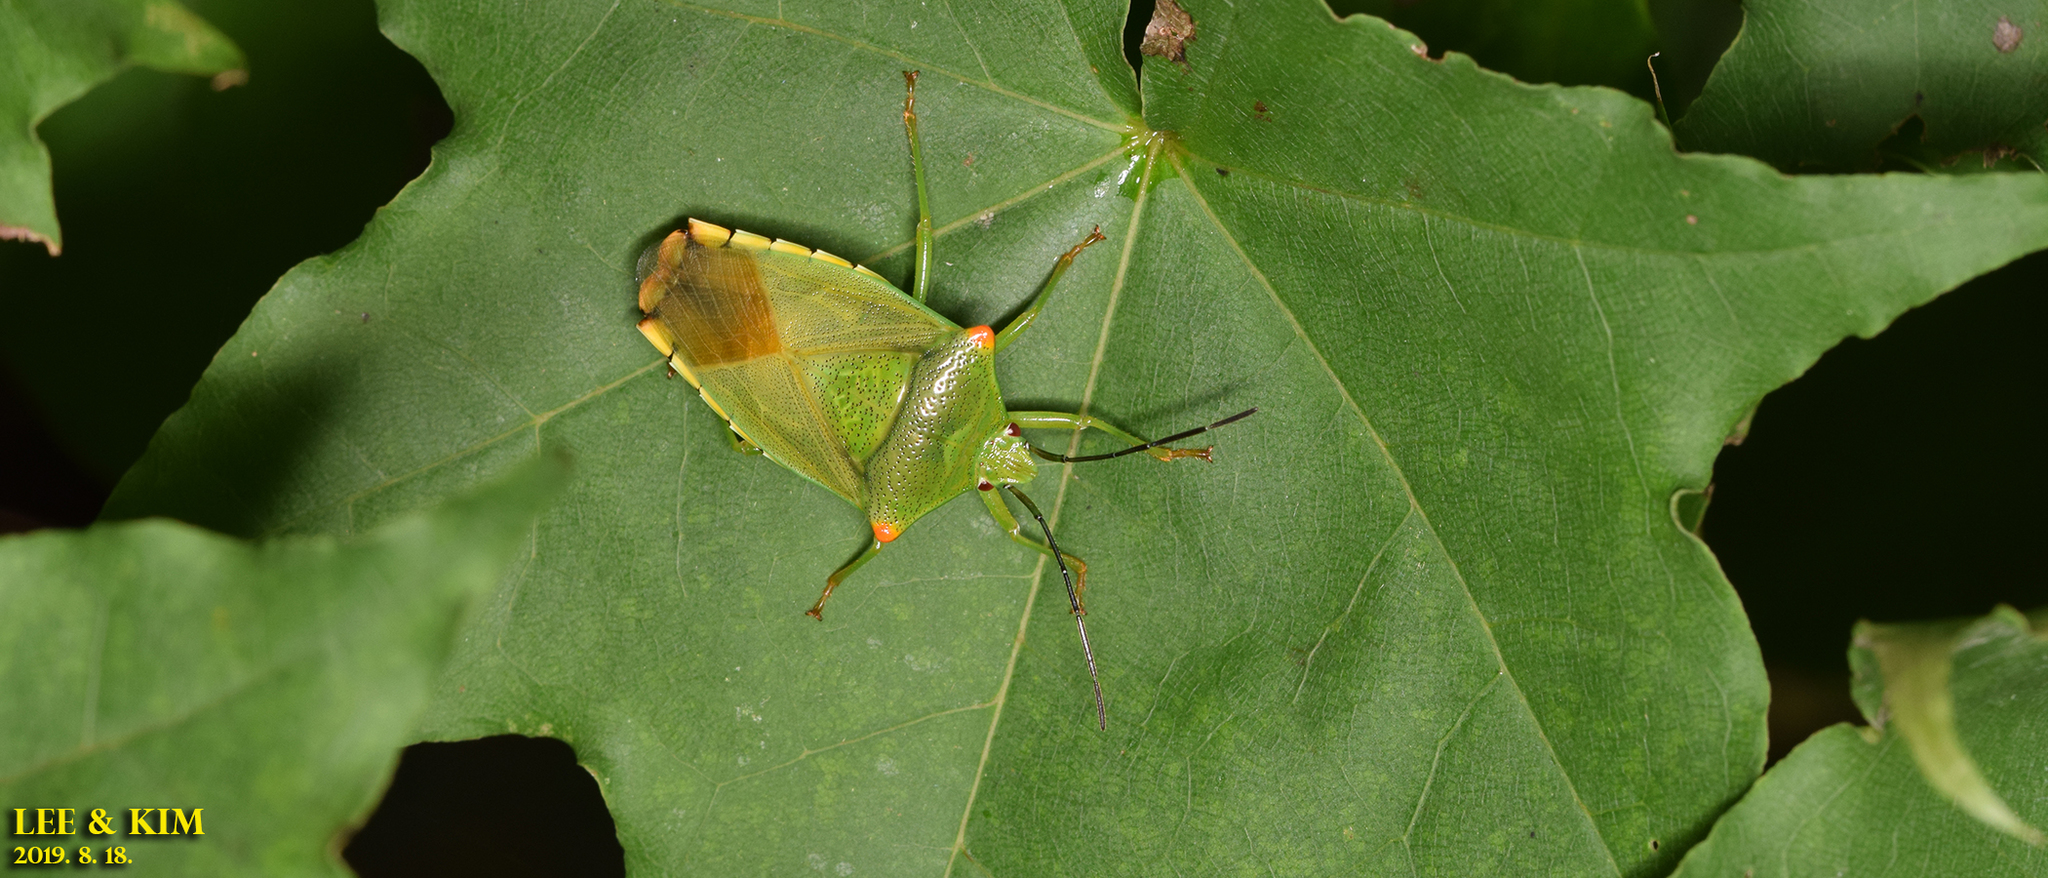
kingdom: Animalia
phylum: Arthropoda
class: Insecta
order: Hemiptera
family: Acanthosomatidae
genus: Acanthosoma
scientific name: Acanthosoma labiduroides
